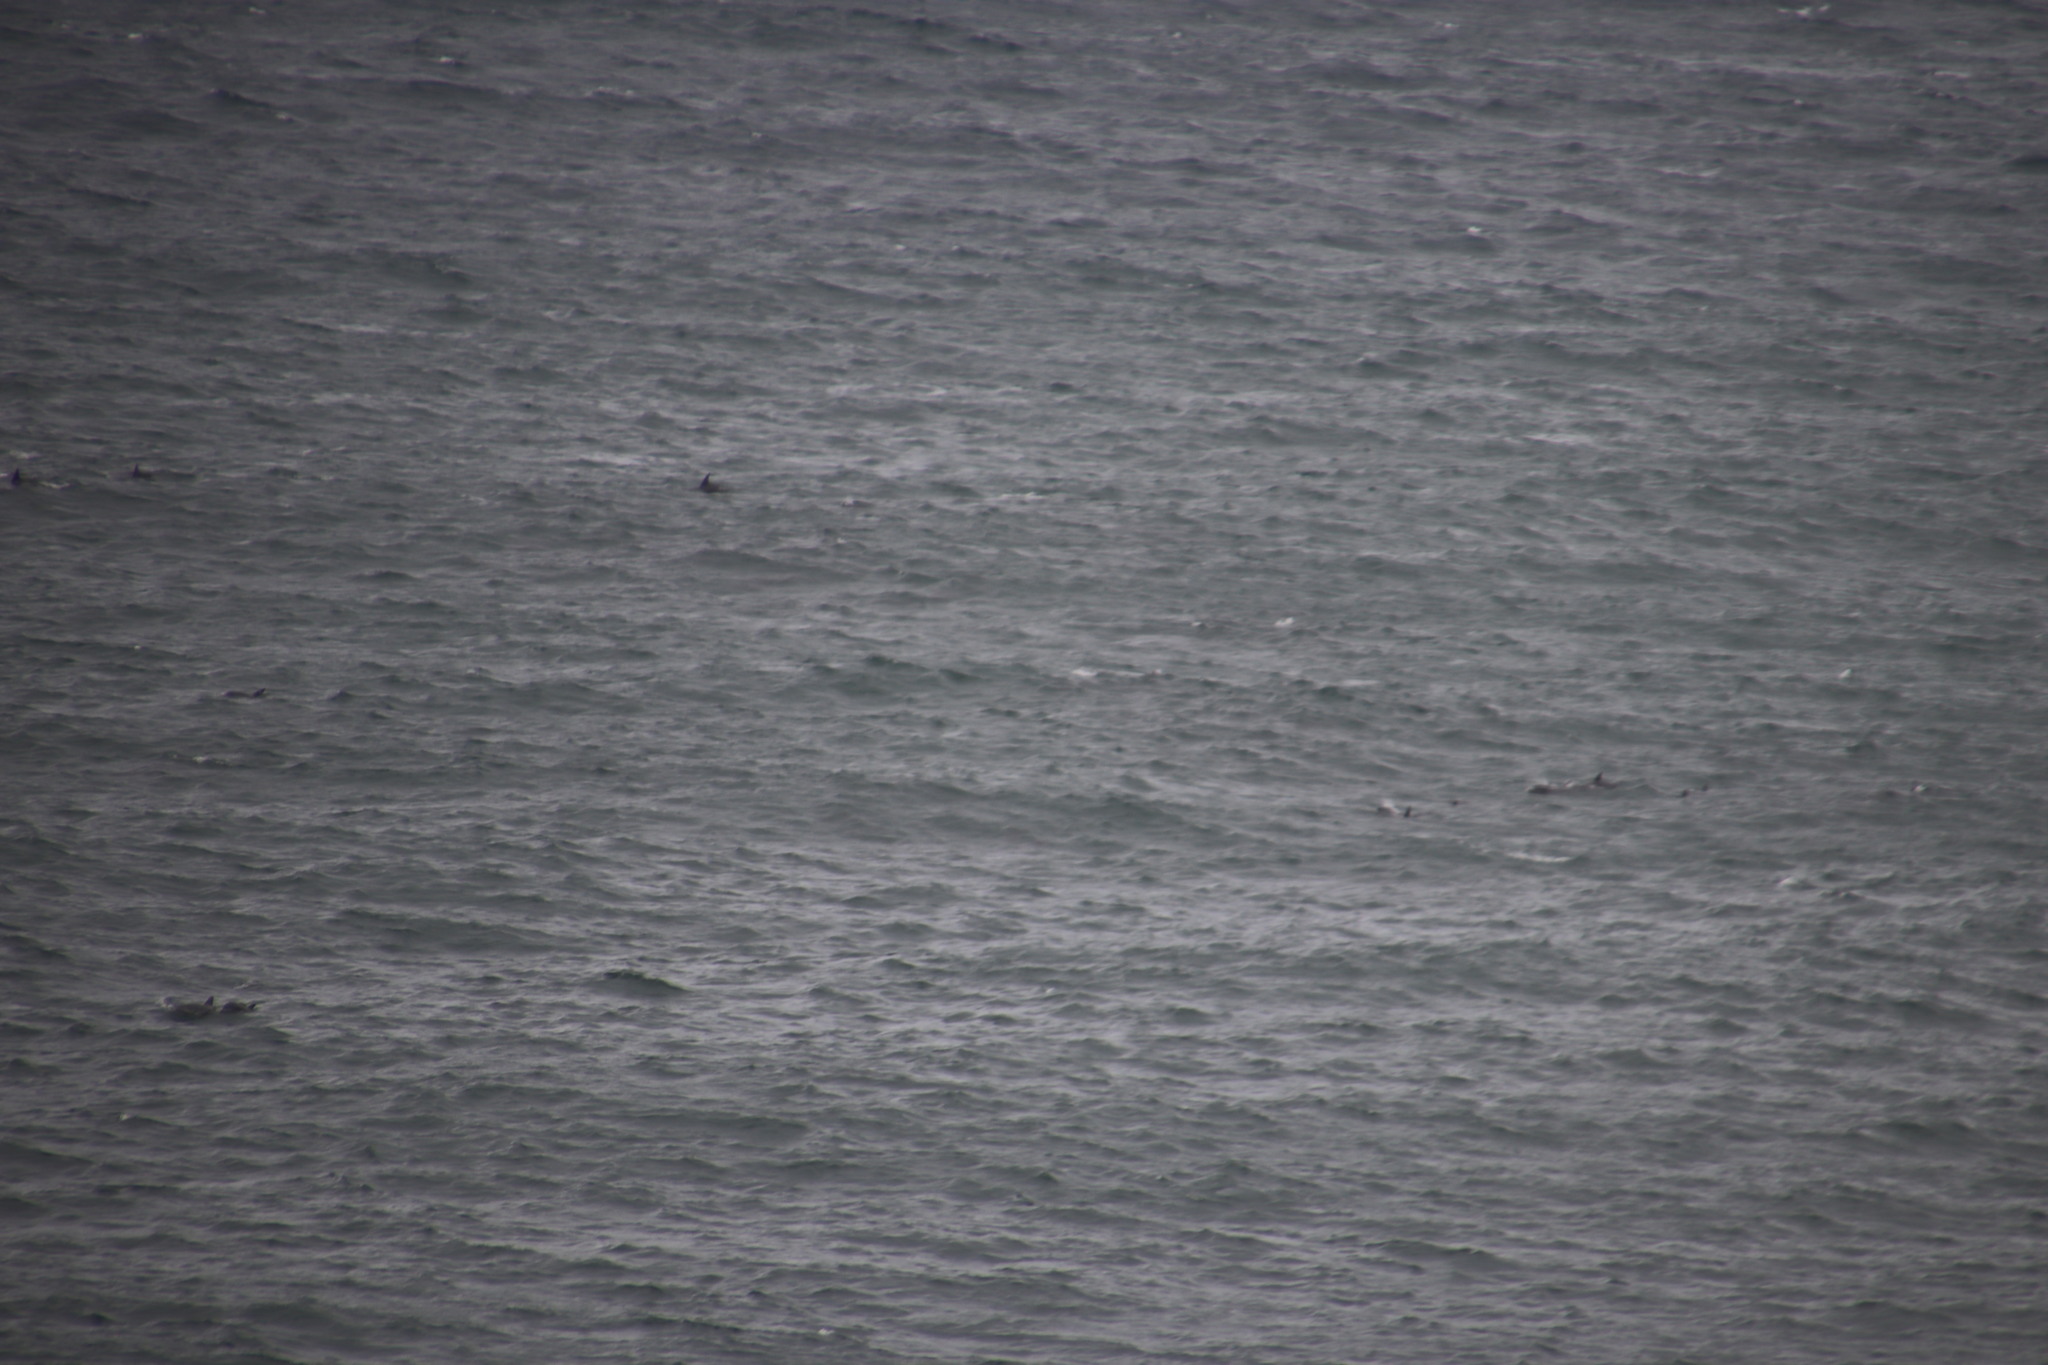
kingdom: Animalia
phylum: Chordata
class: Mammalia
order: Cetacea
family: Delphinidae
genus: Tursiops
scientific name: Tursiops aduncus
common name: Indo-pacific bottlenose dolphin
